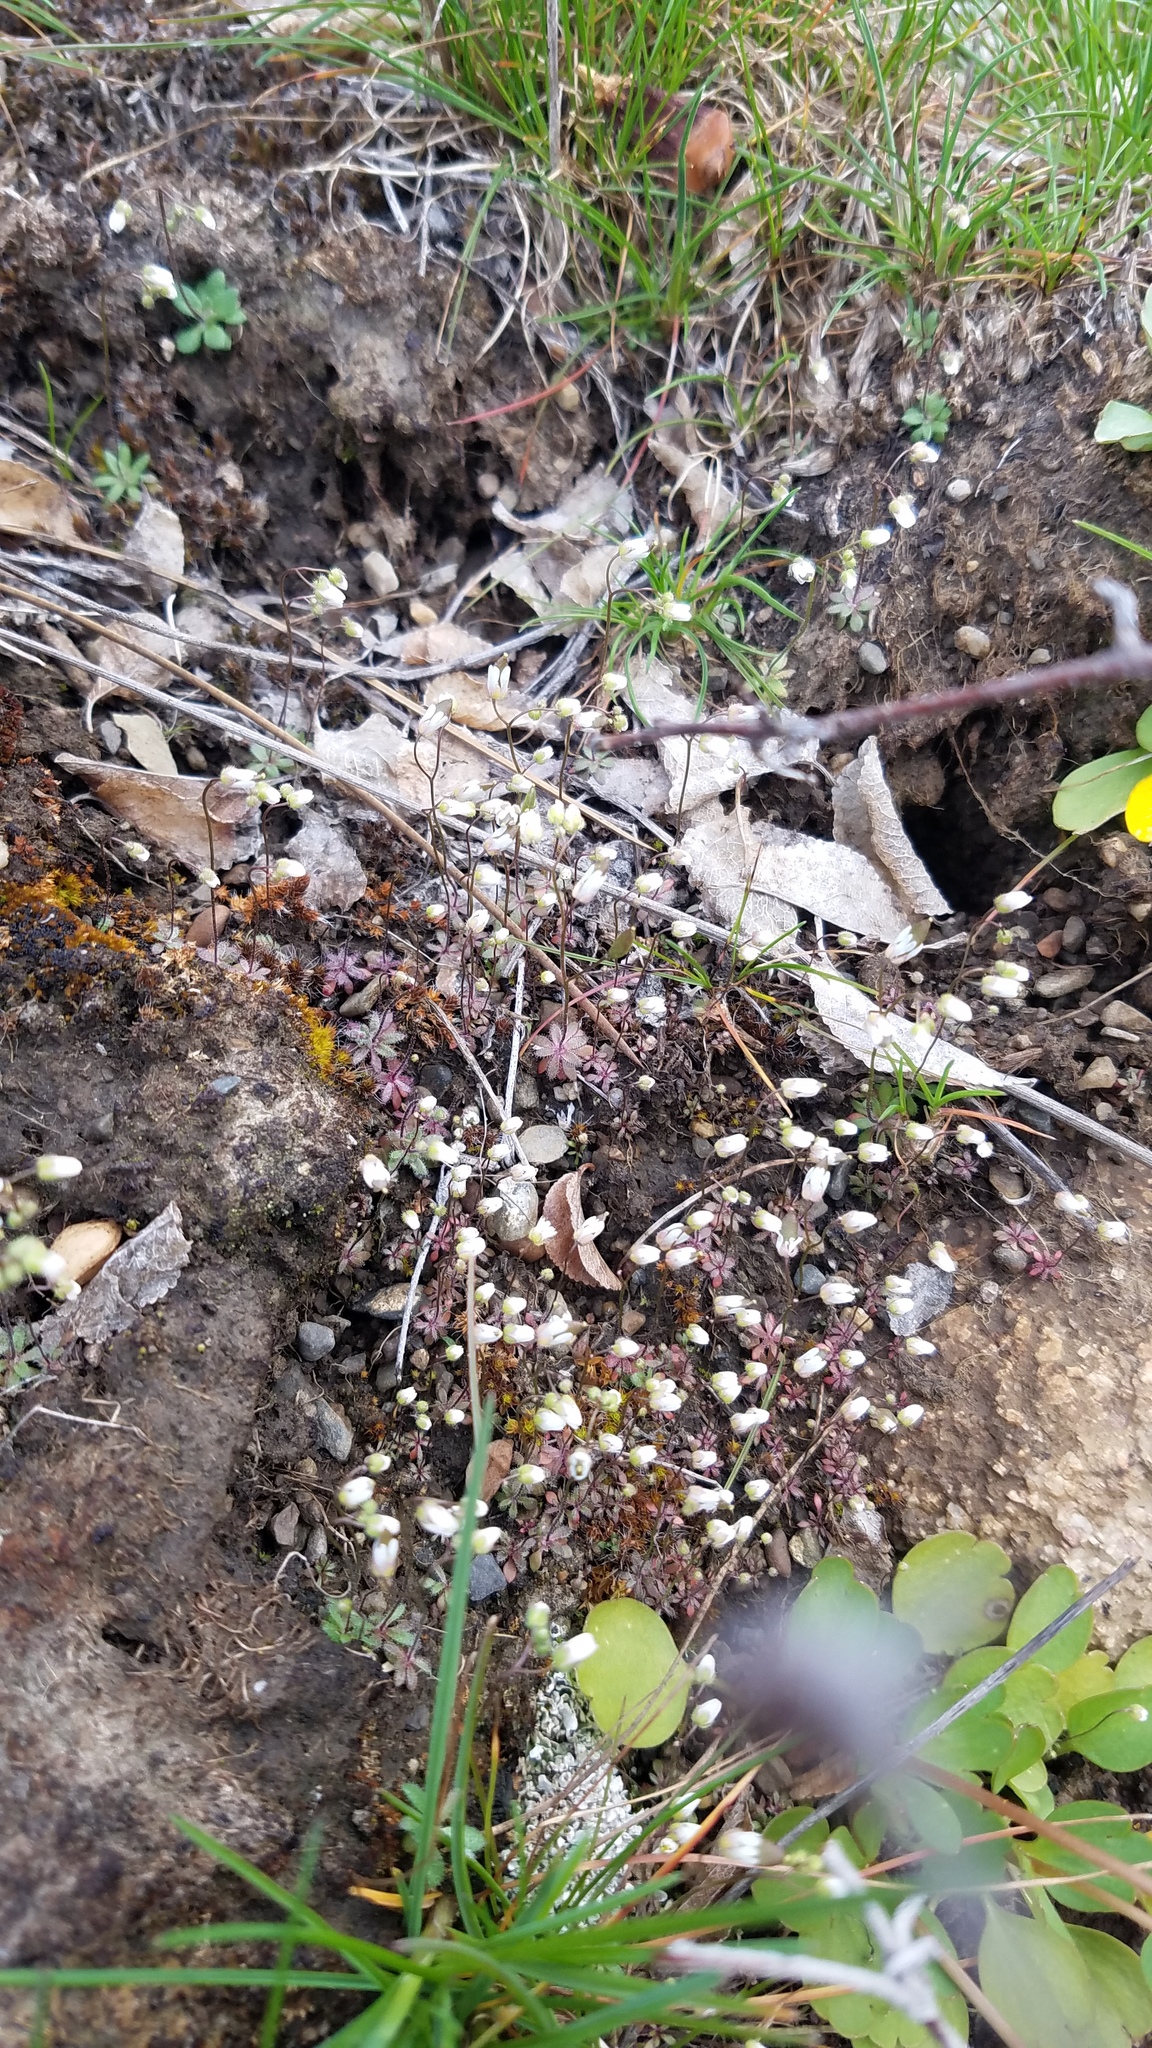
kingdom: Plantae
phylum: Tracheophyta
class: Magnoliopsida
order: Brassicales
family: Brassicaceae
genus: Draba
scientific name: Draba verna
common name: Spring draba
